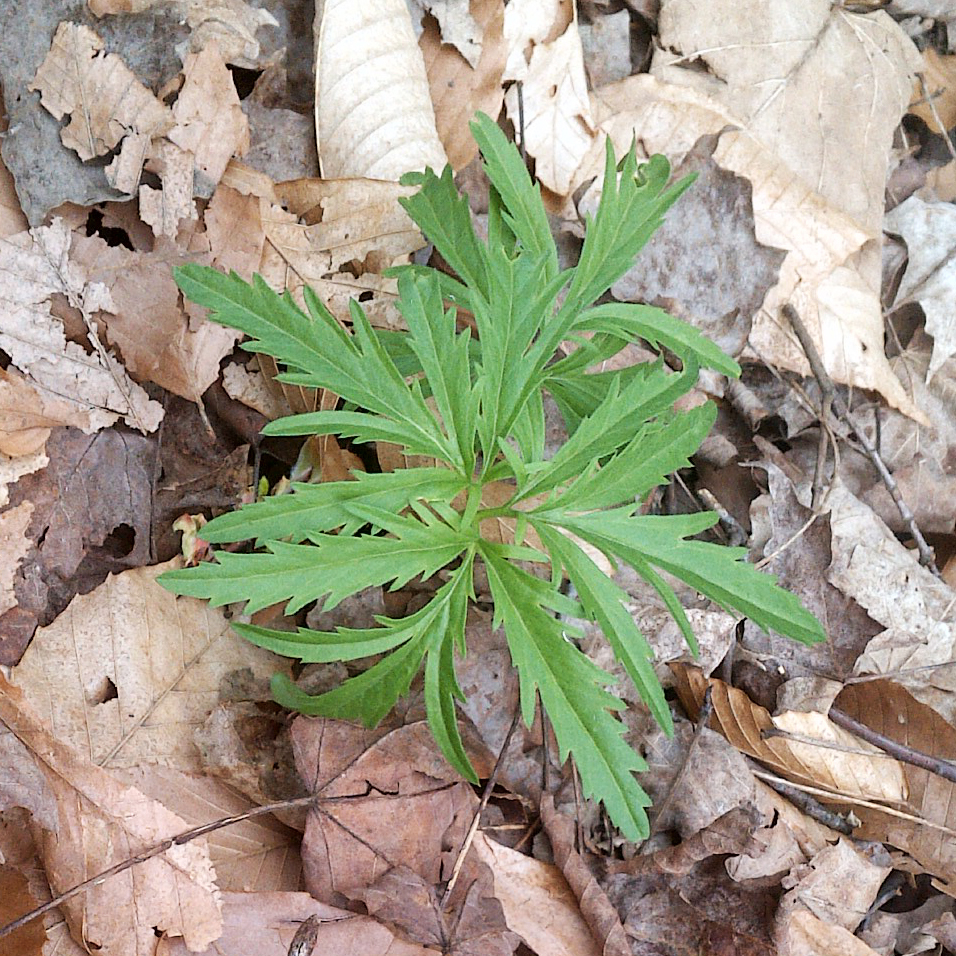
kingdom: Plantae
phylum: Tracheophyta
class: Magnoliopsida
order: Brassicales
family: Brassicaceae
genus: Cardamine
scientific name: Cardamine concatenata
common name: Cut-leaf toothcup
